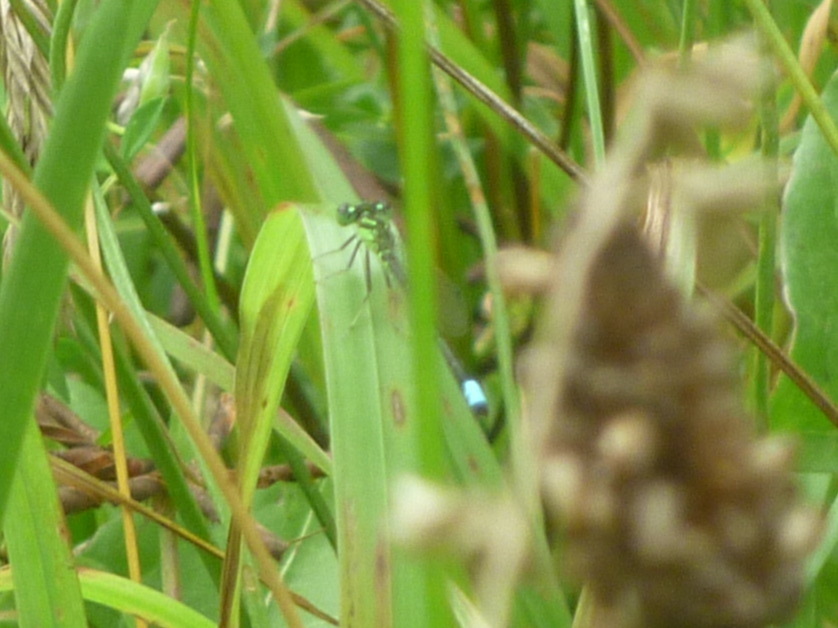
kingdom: Animalia
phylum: Arthropoda
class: Insecta
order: Odonata
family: Coenagrionidae
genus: Ischnura
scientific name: Ischnura verticalis
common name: Eastern forktail
